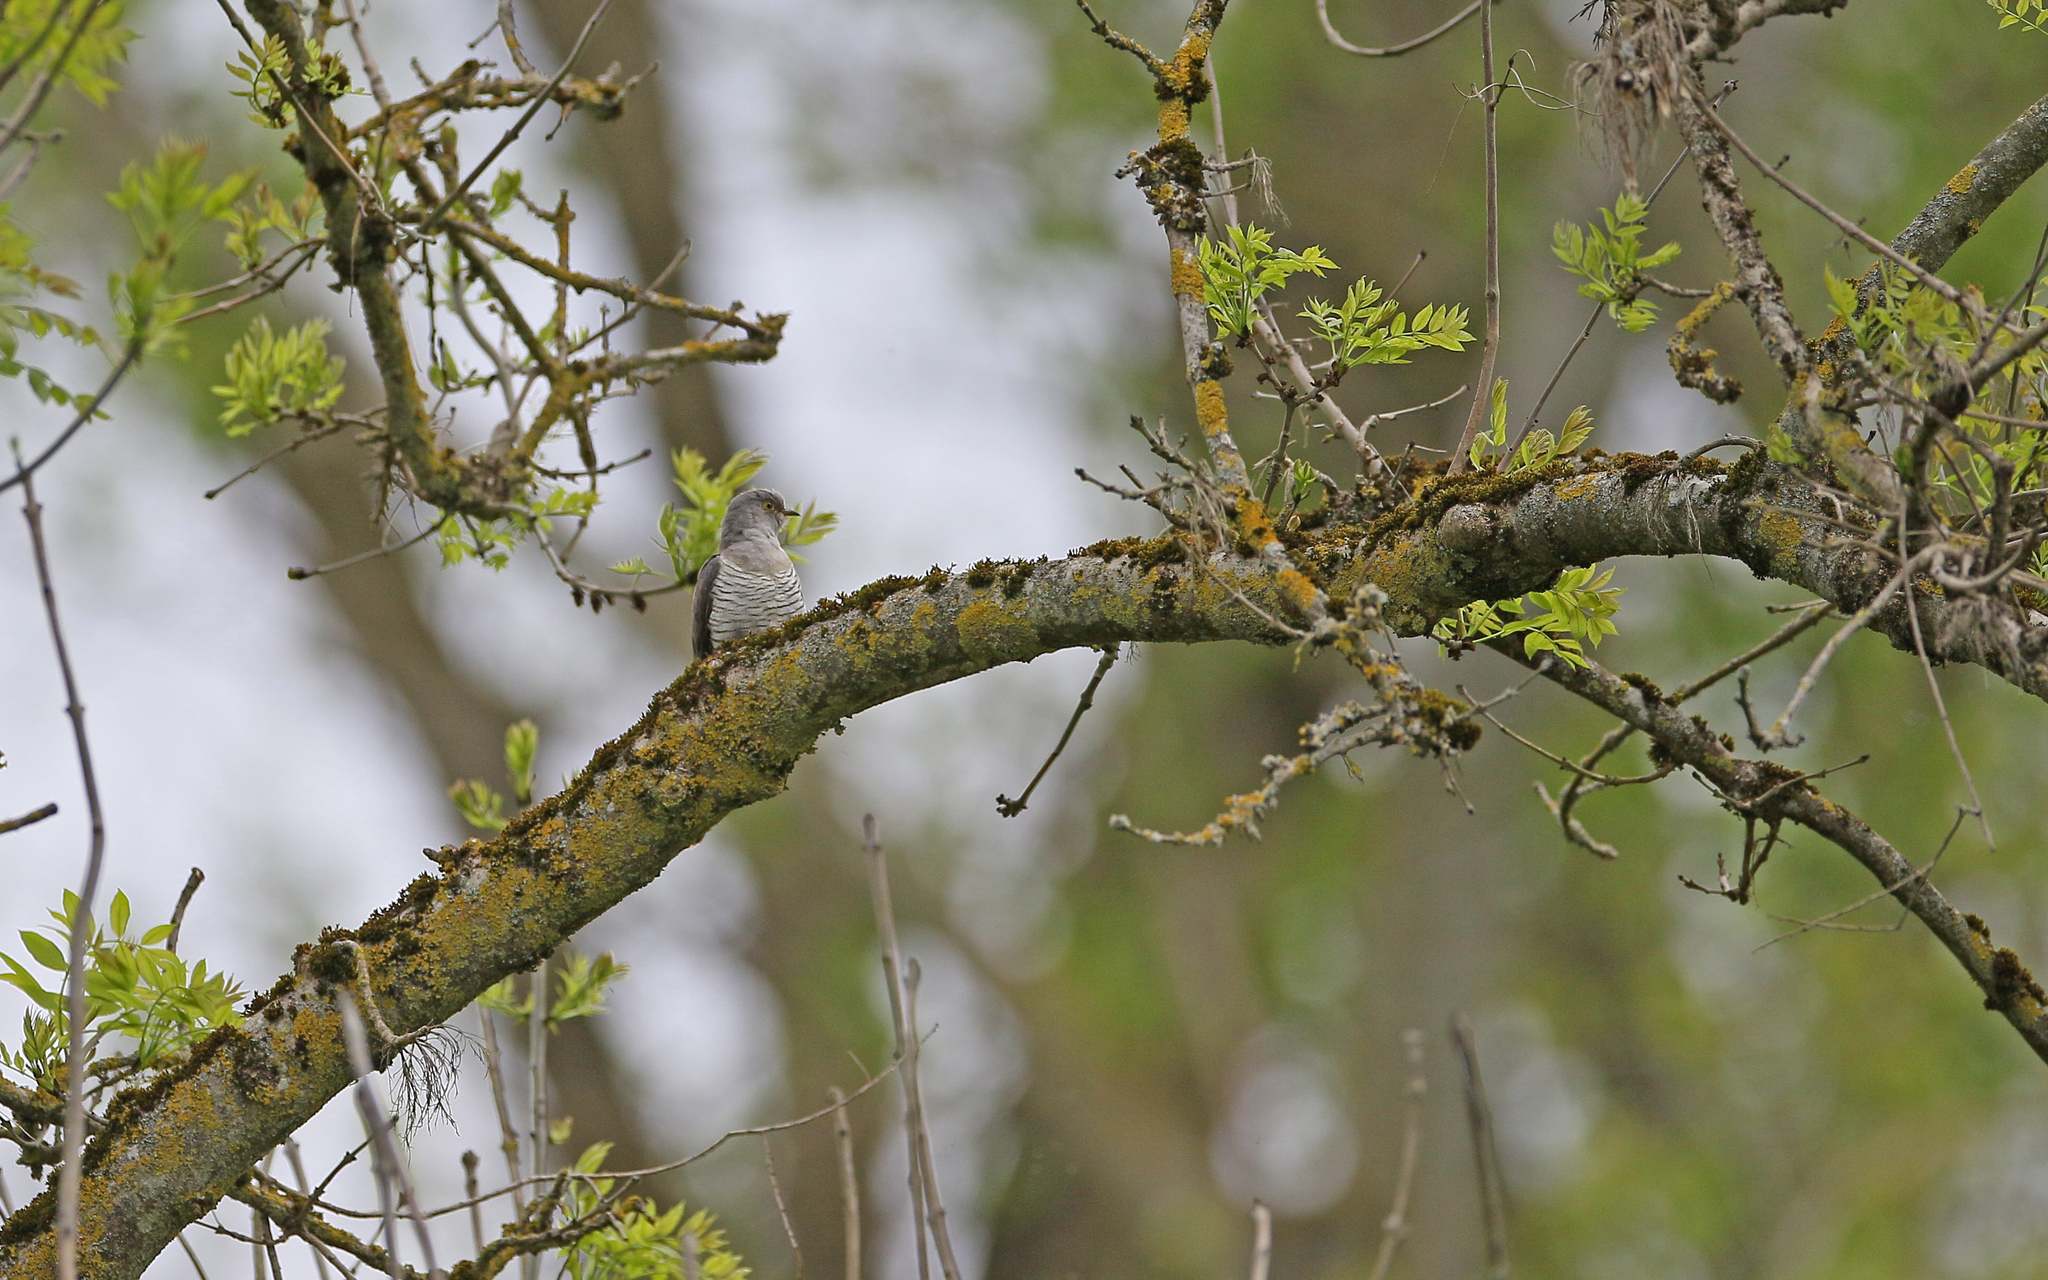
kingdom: Animalia
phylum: Chordata
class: Aves
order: Cuculiformes
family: Cuculidae
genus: Cuculus
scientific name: Cuculus canorus
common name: Common cuckoo
